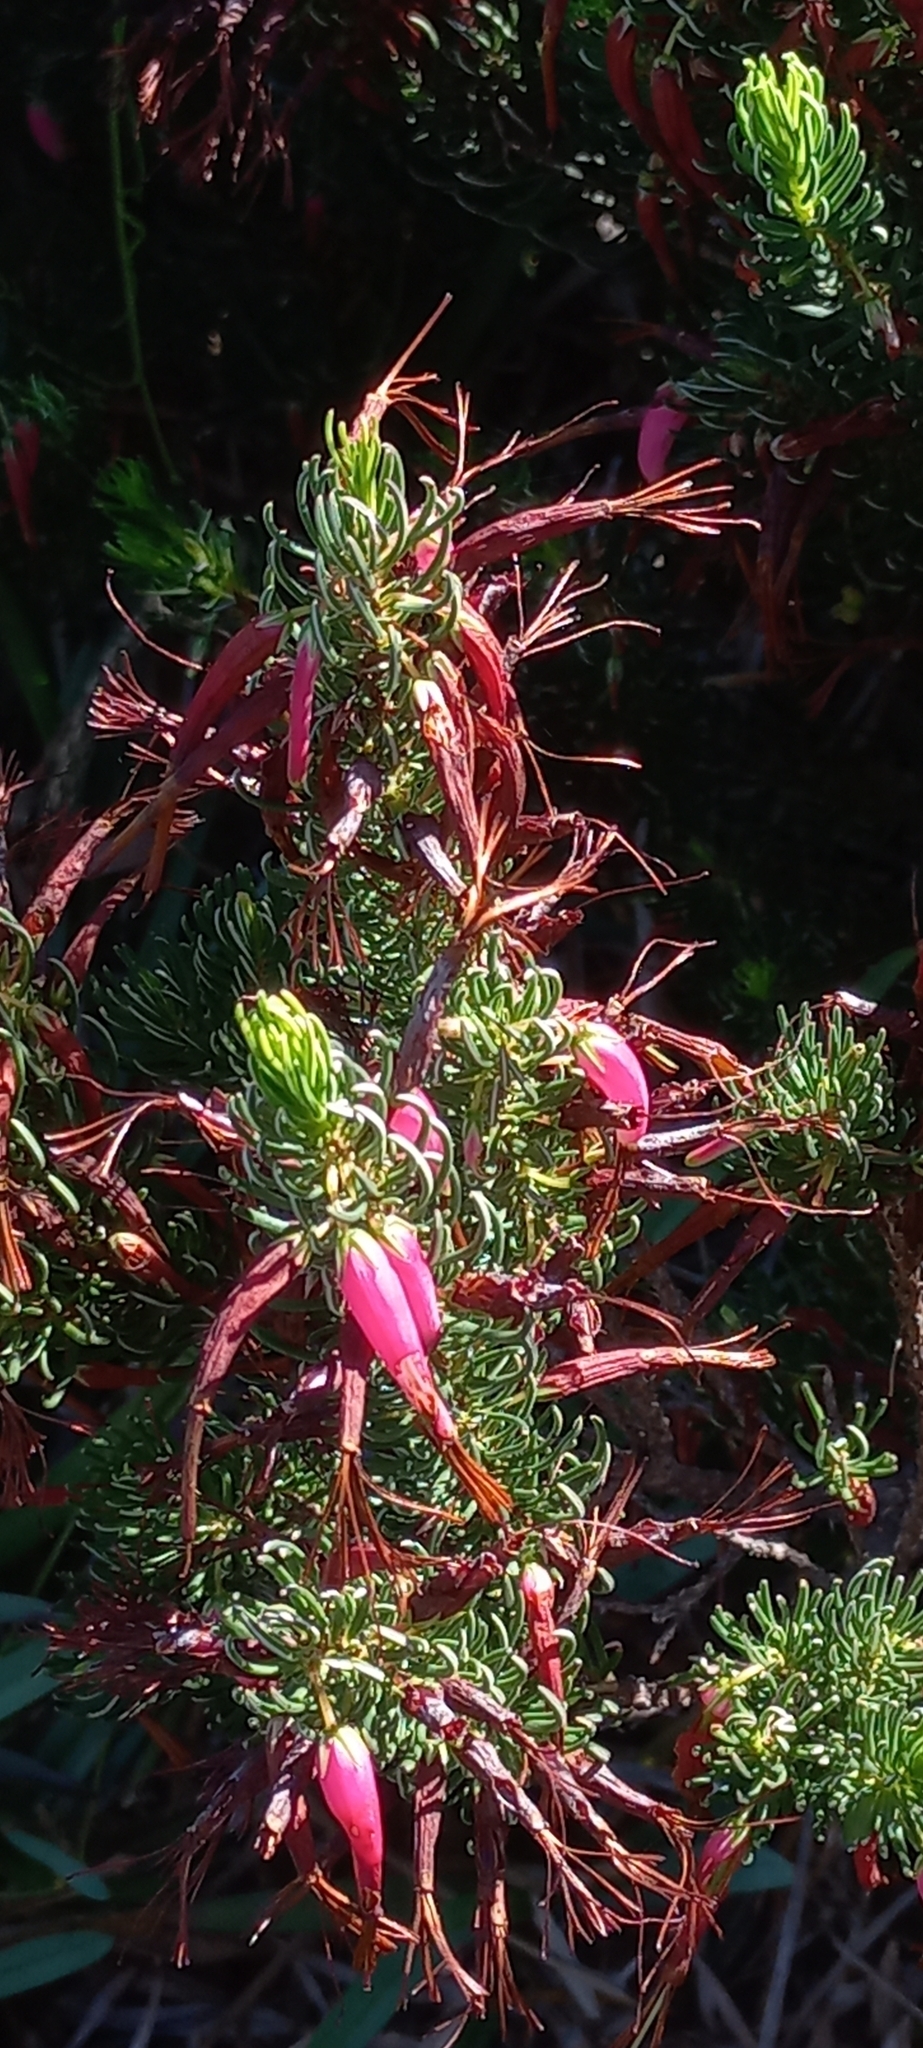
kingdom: Plantae
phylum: Tracheophyta
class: Magnoliopsida
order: Ericales
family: Ericaceae
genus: Erica
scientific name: Erica plukenetii
